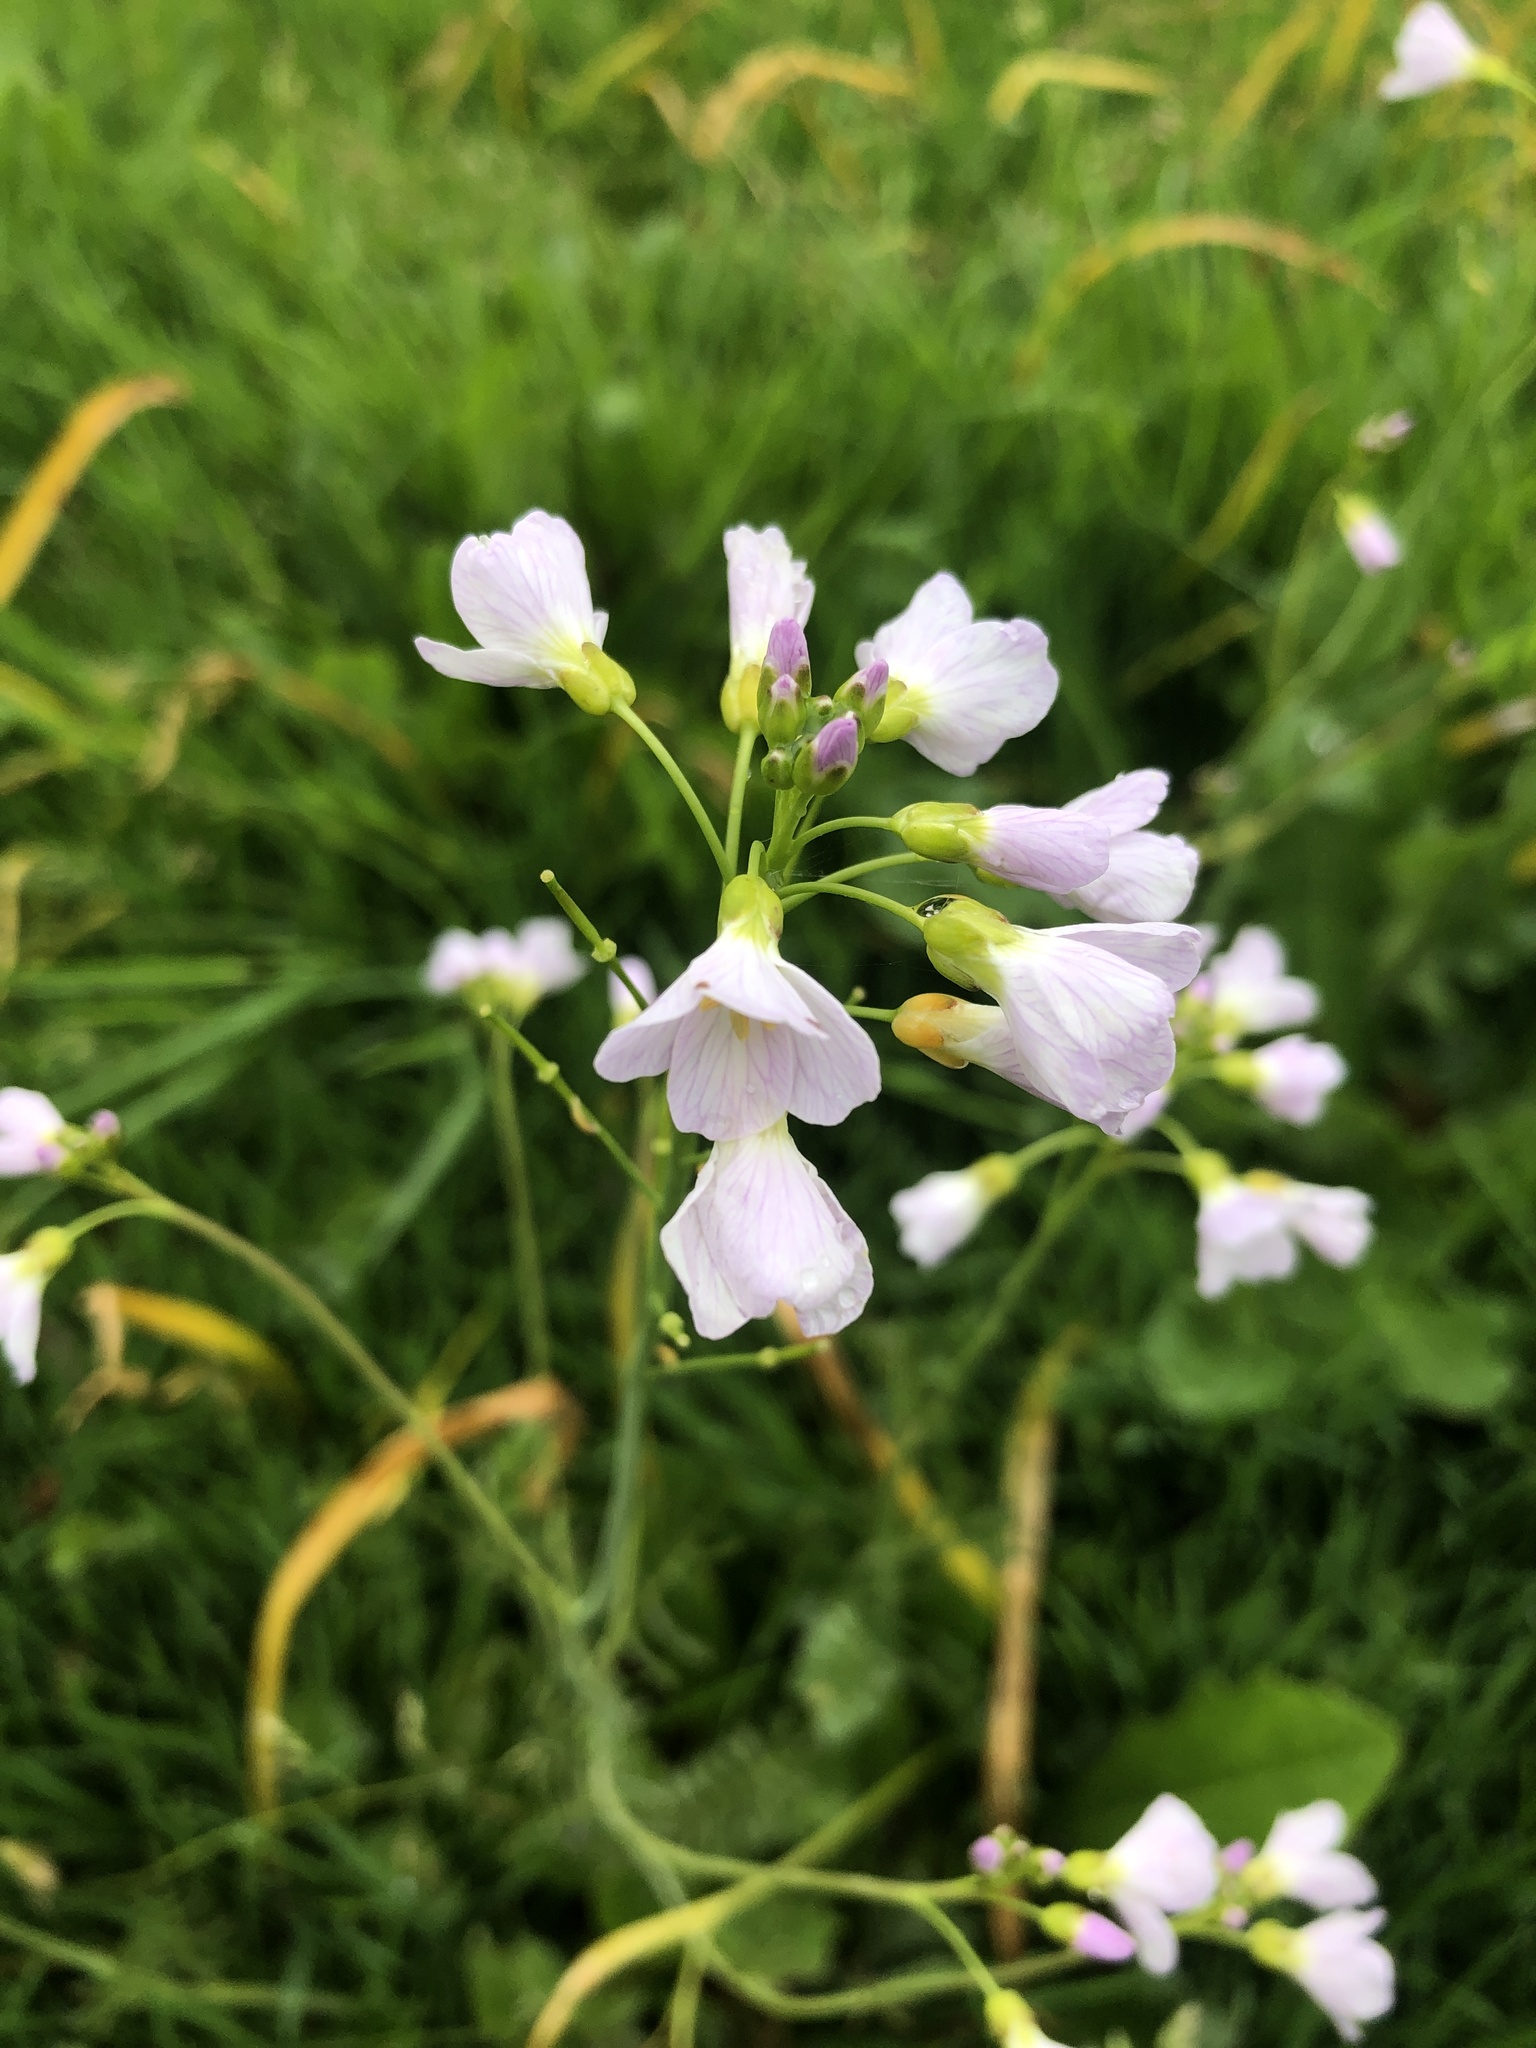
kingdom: Plantae
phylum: Tracheophyta
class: Magnoliopsida
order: Brassicales
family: Brassicaceae
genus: Cardamine
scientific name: Cardamine pratensis
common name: Cuckoo flower
